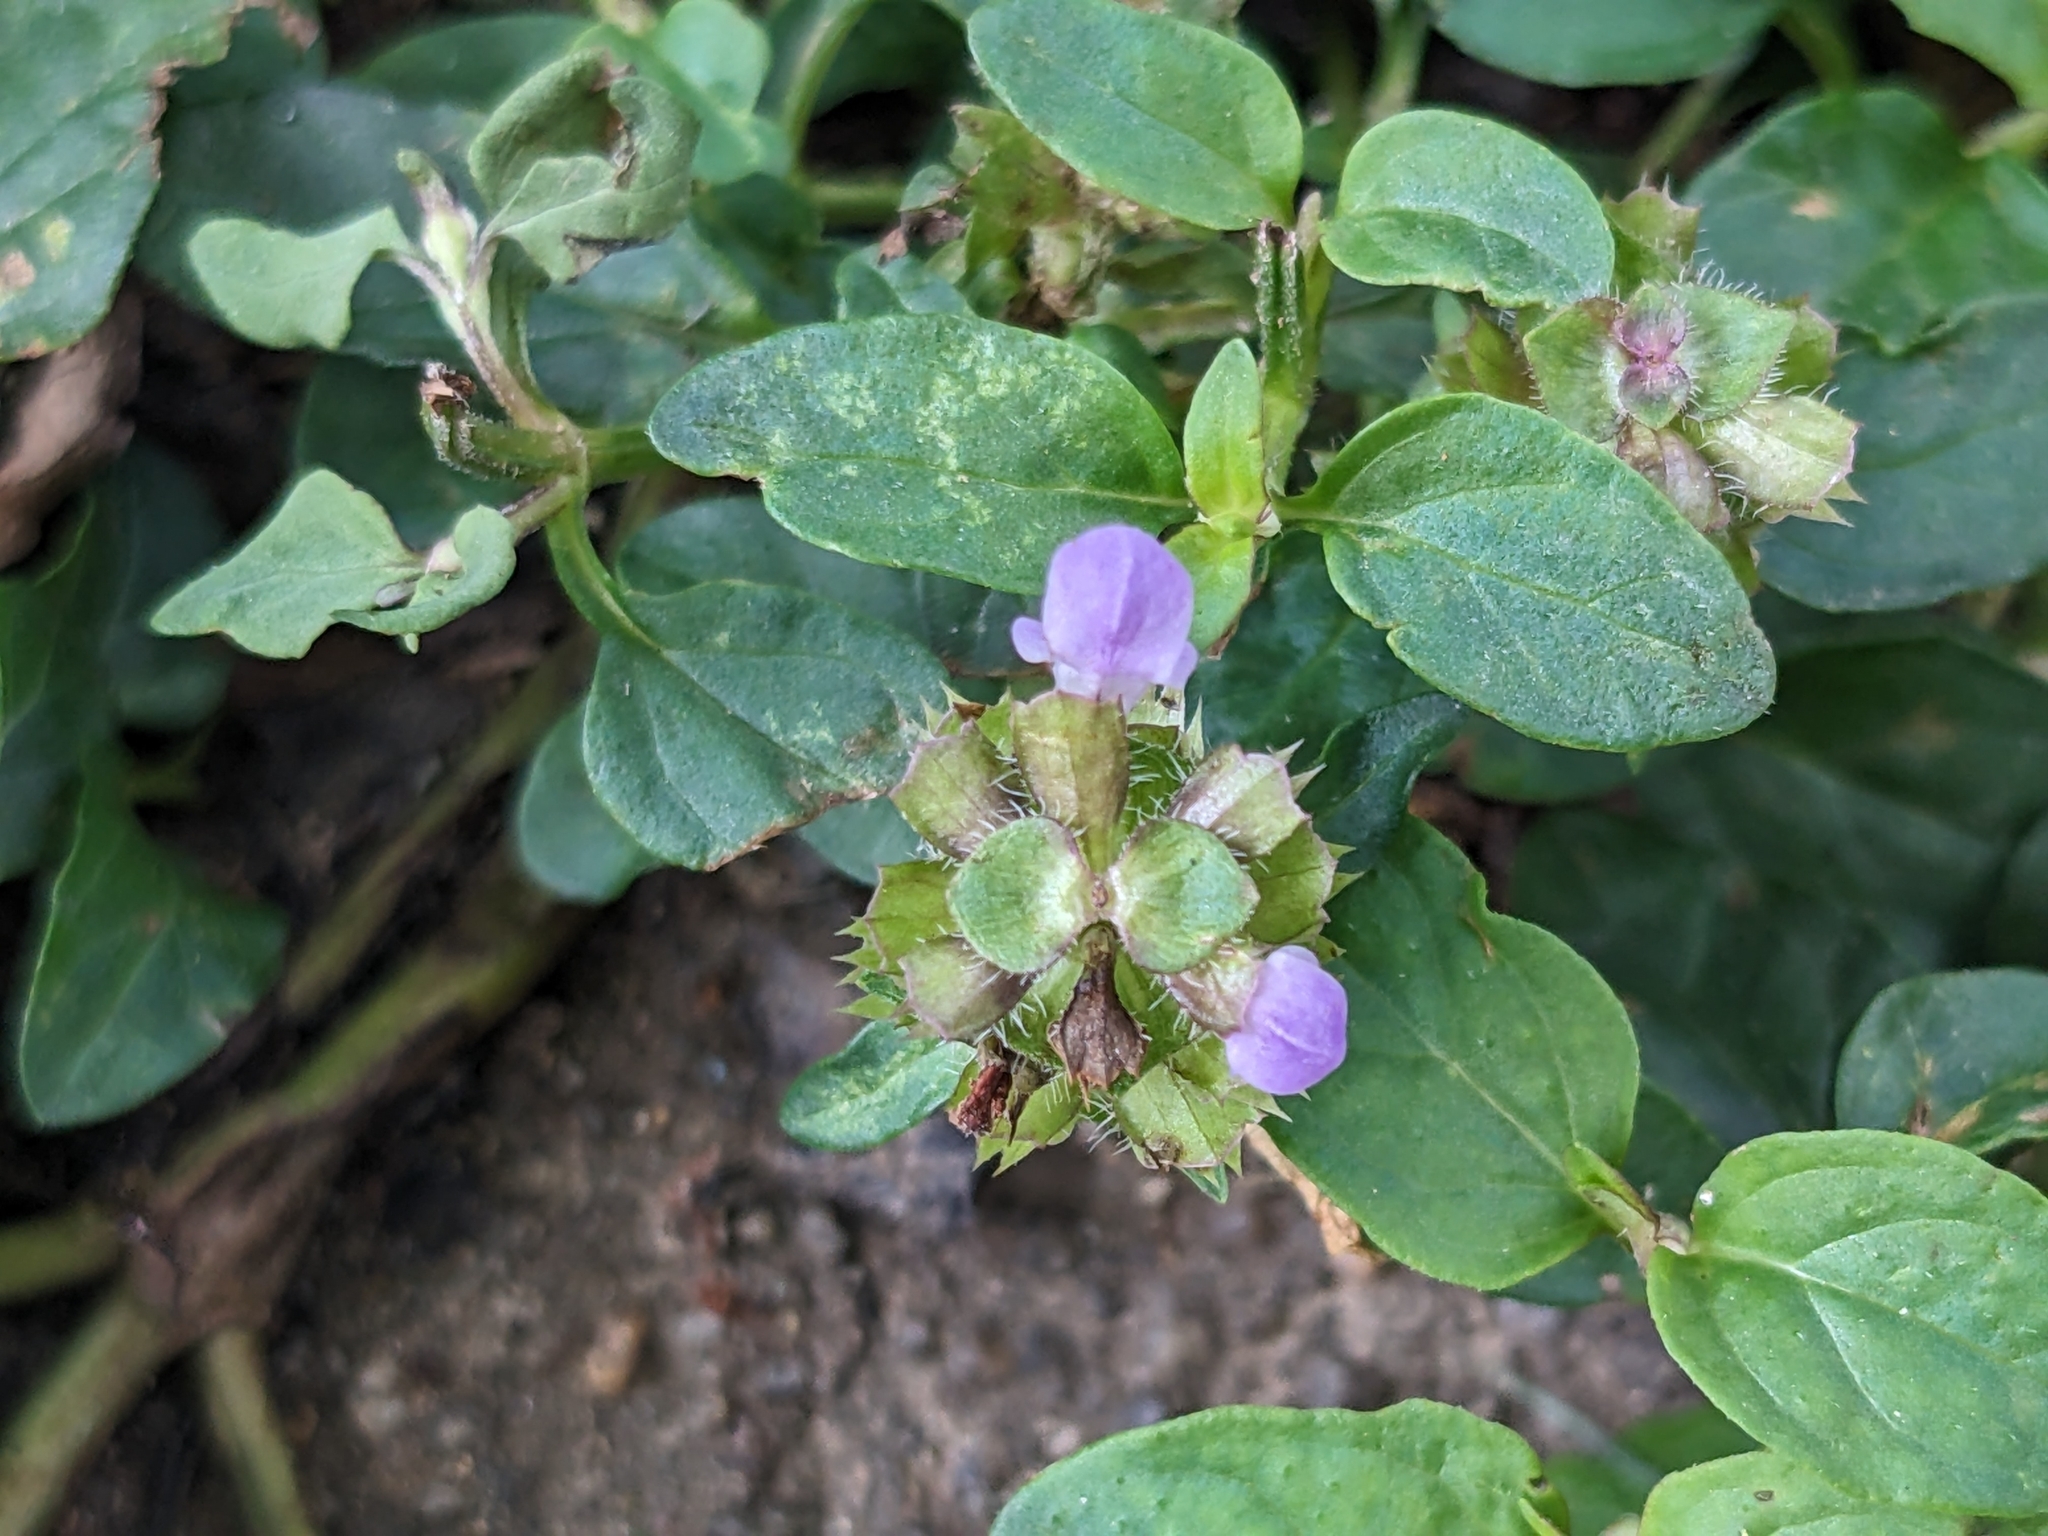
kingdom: Plantae
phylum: Tracheophyta
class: Magnoliopsida
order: Lamiales
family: Lamiaceae
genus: Prunella
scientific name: Prunella vulgaris
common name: Heal-all
